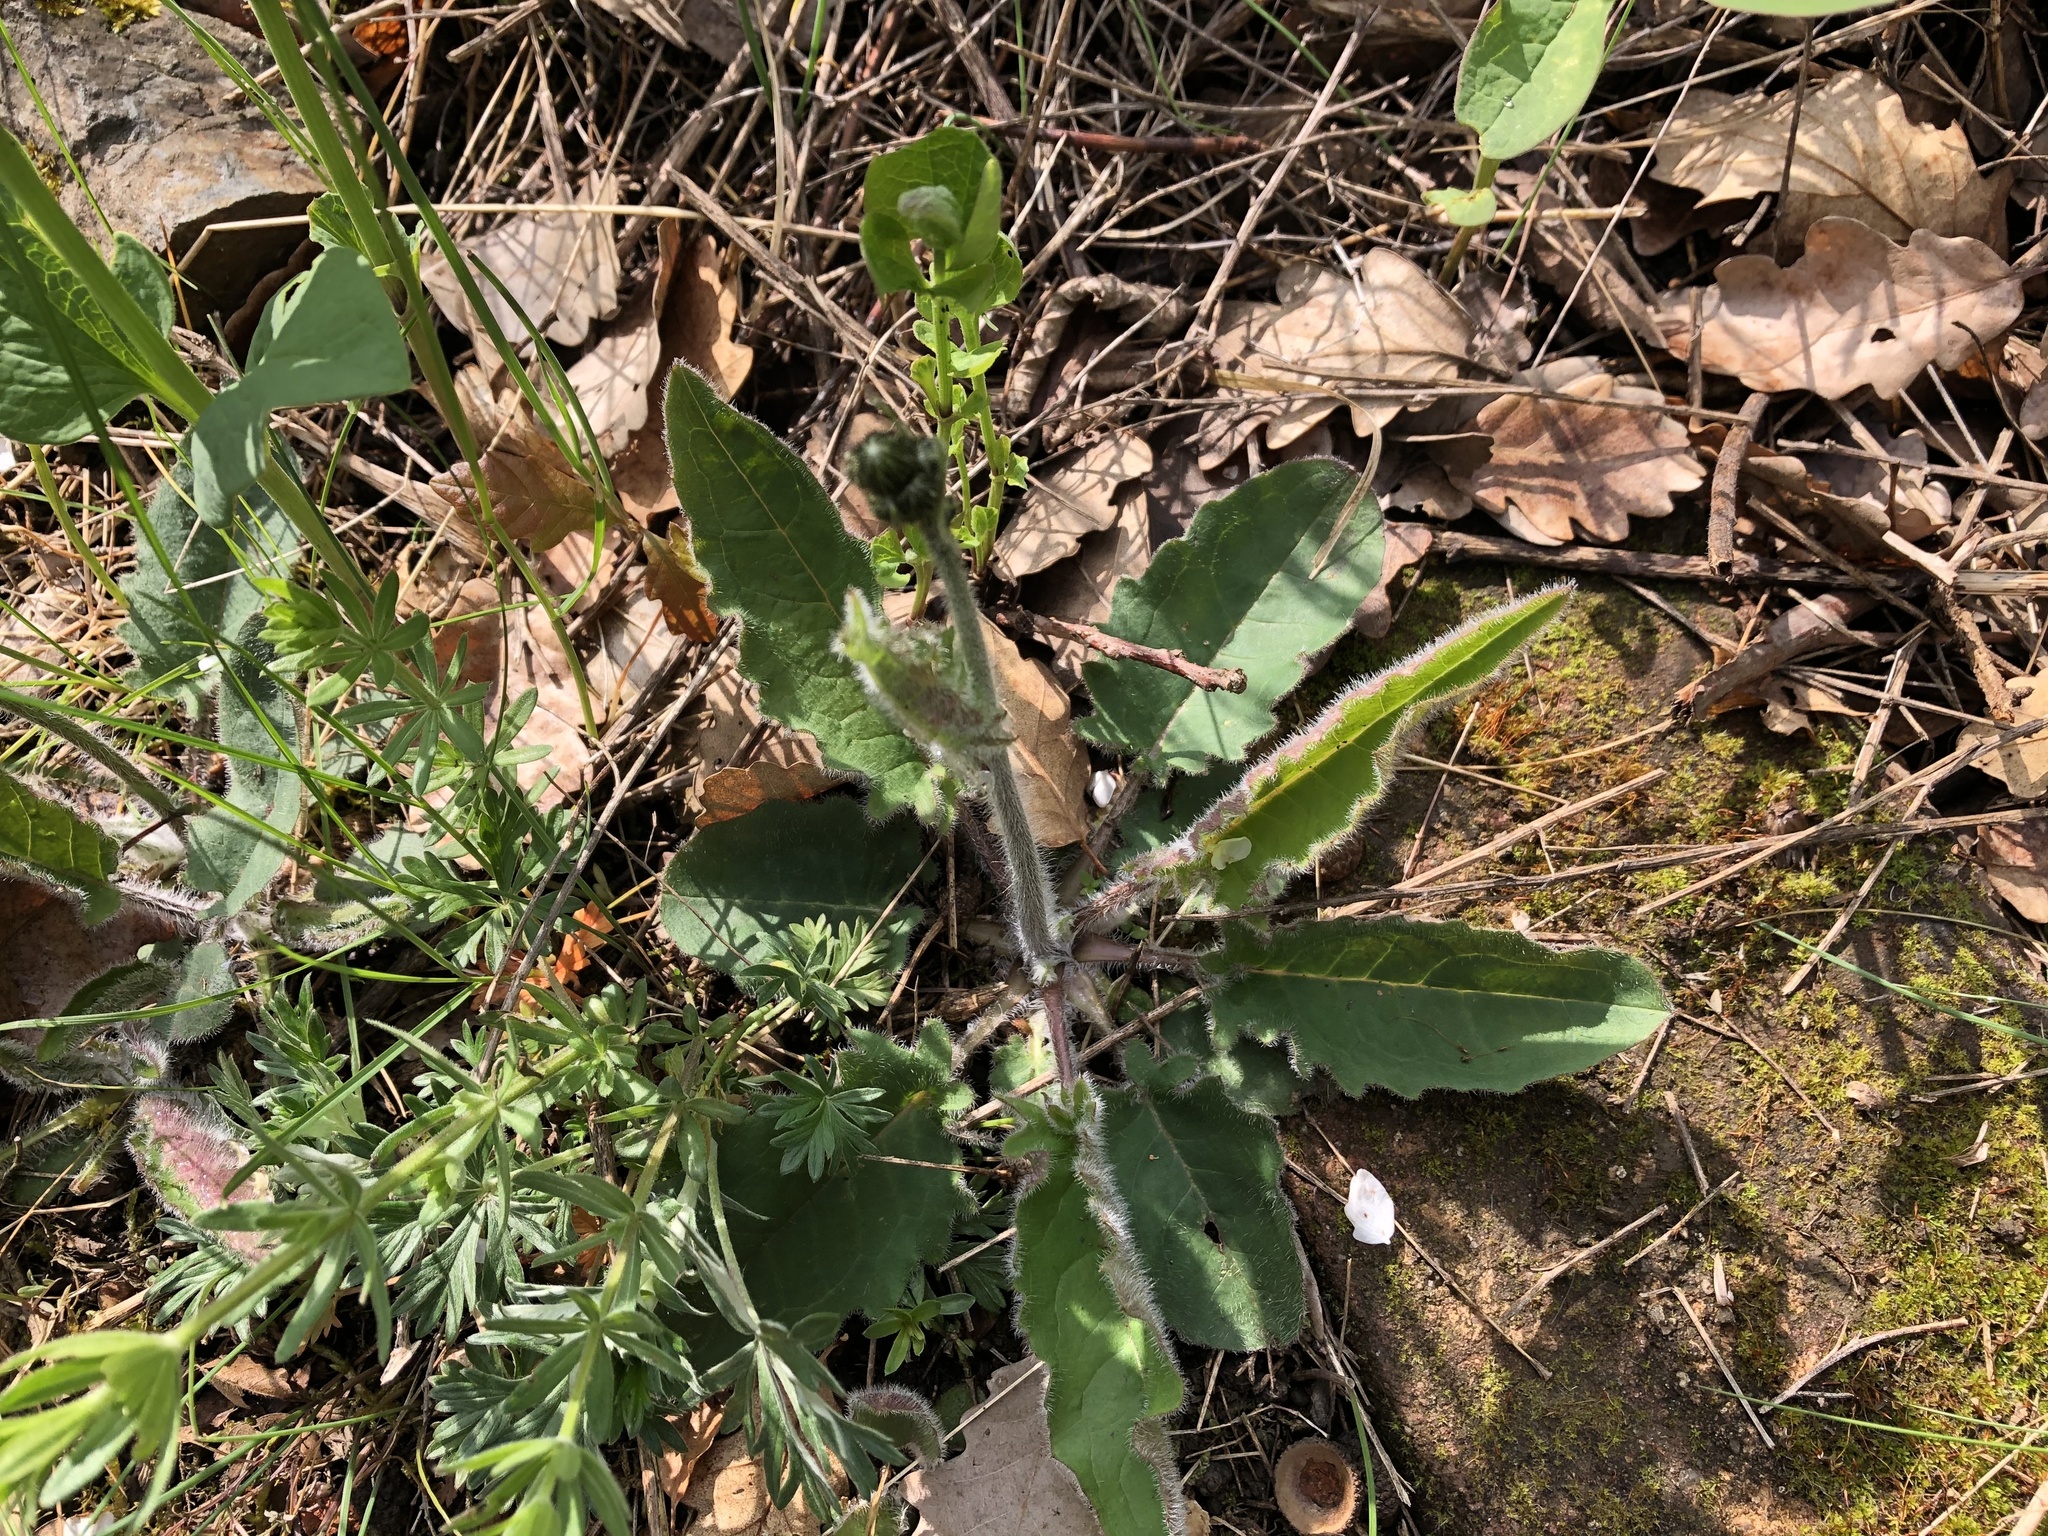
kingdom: Plantae
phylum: Tracheophyta
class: Magnoliopsida
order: Asterales
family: Asteraceae
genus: Hieracium
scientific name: Hieracium murorum
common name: Wall hawkweed
